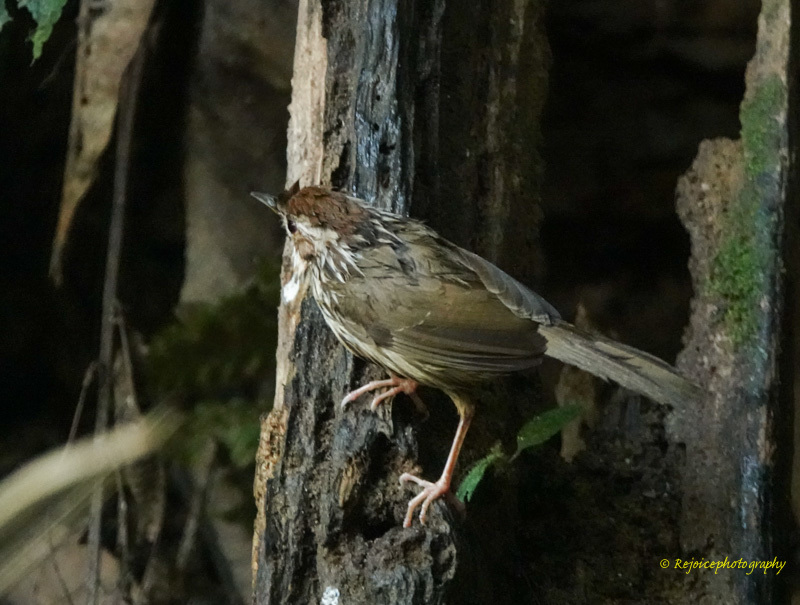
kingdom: Animalia
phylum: Chordata
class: Aves
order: Passeriformes
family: Pellorneidae
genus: Pellorneum
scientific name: Pellorneum ruficeps
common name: Puff-throated babbler
